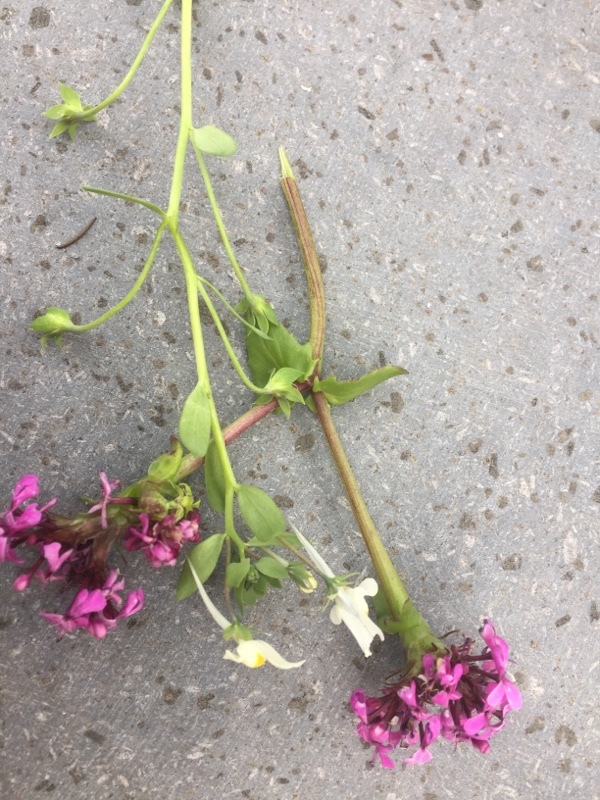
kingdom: Plantae
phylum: Tracheophyta
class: Magnoliopsida
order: Lamiales
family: Plantaginaceae
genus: Linaria
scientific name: Linaria reflexa
